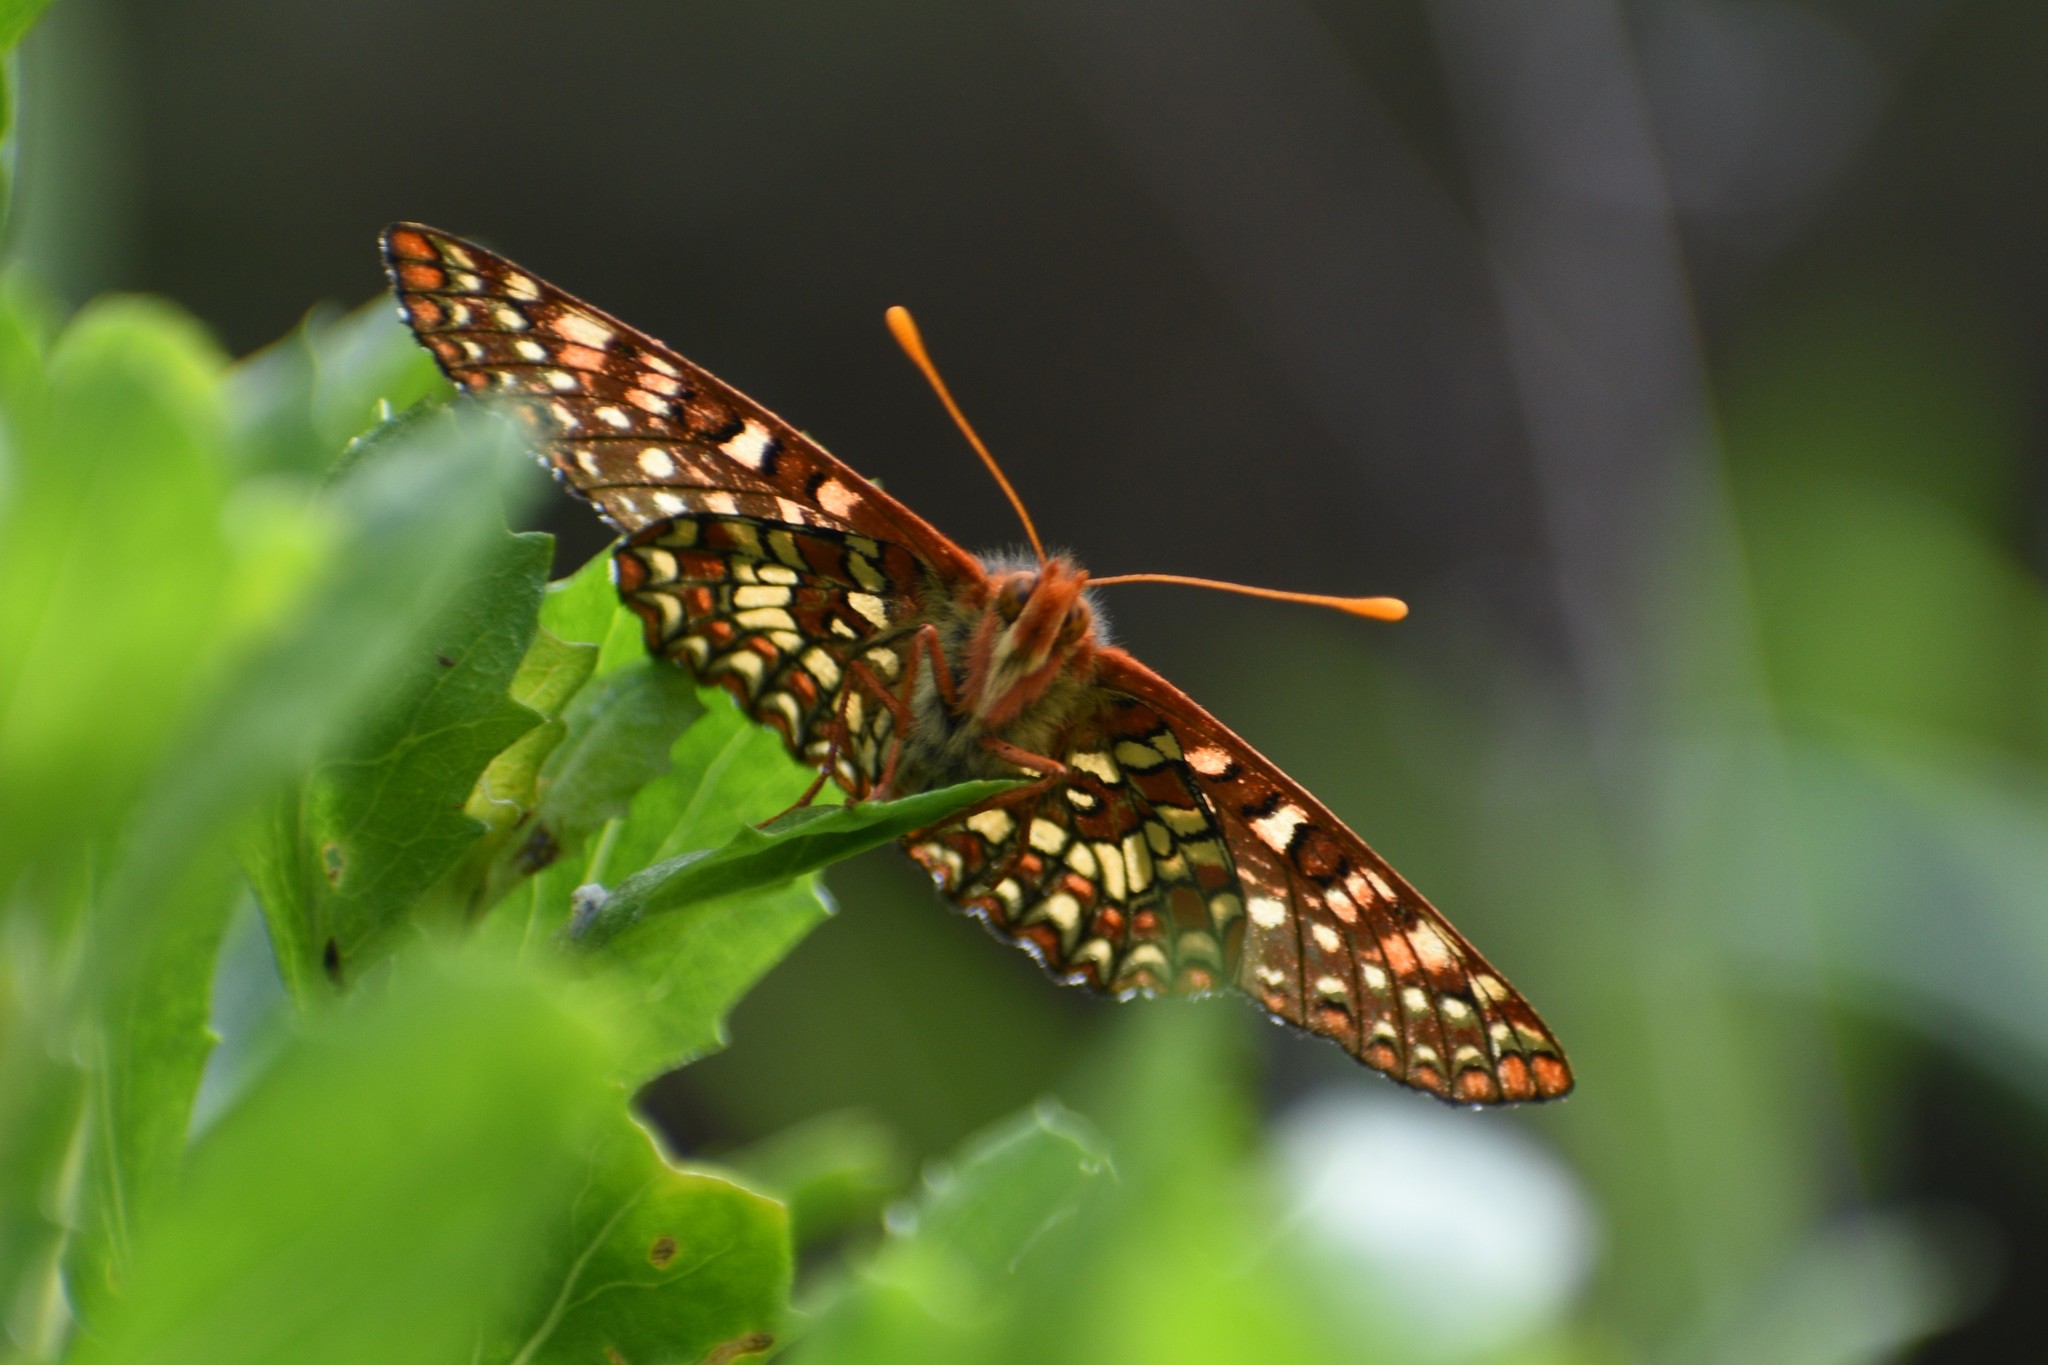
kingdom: Animalia
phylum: Arthropoda
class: Insecta
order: Lepidoptera
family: Nymphalidae
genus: Occidryas
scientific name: Occidryas chalcedona
